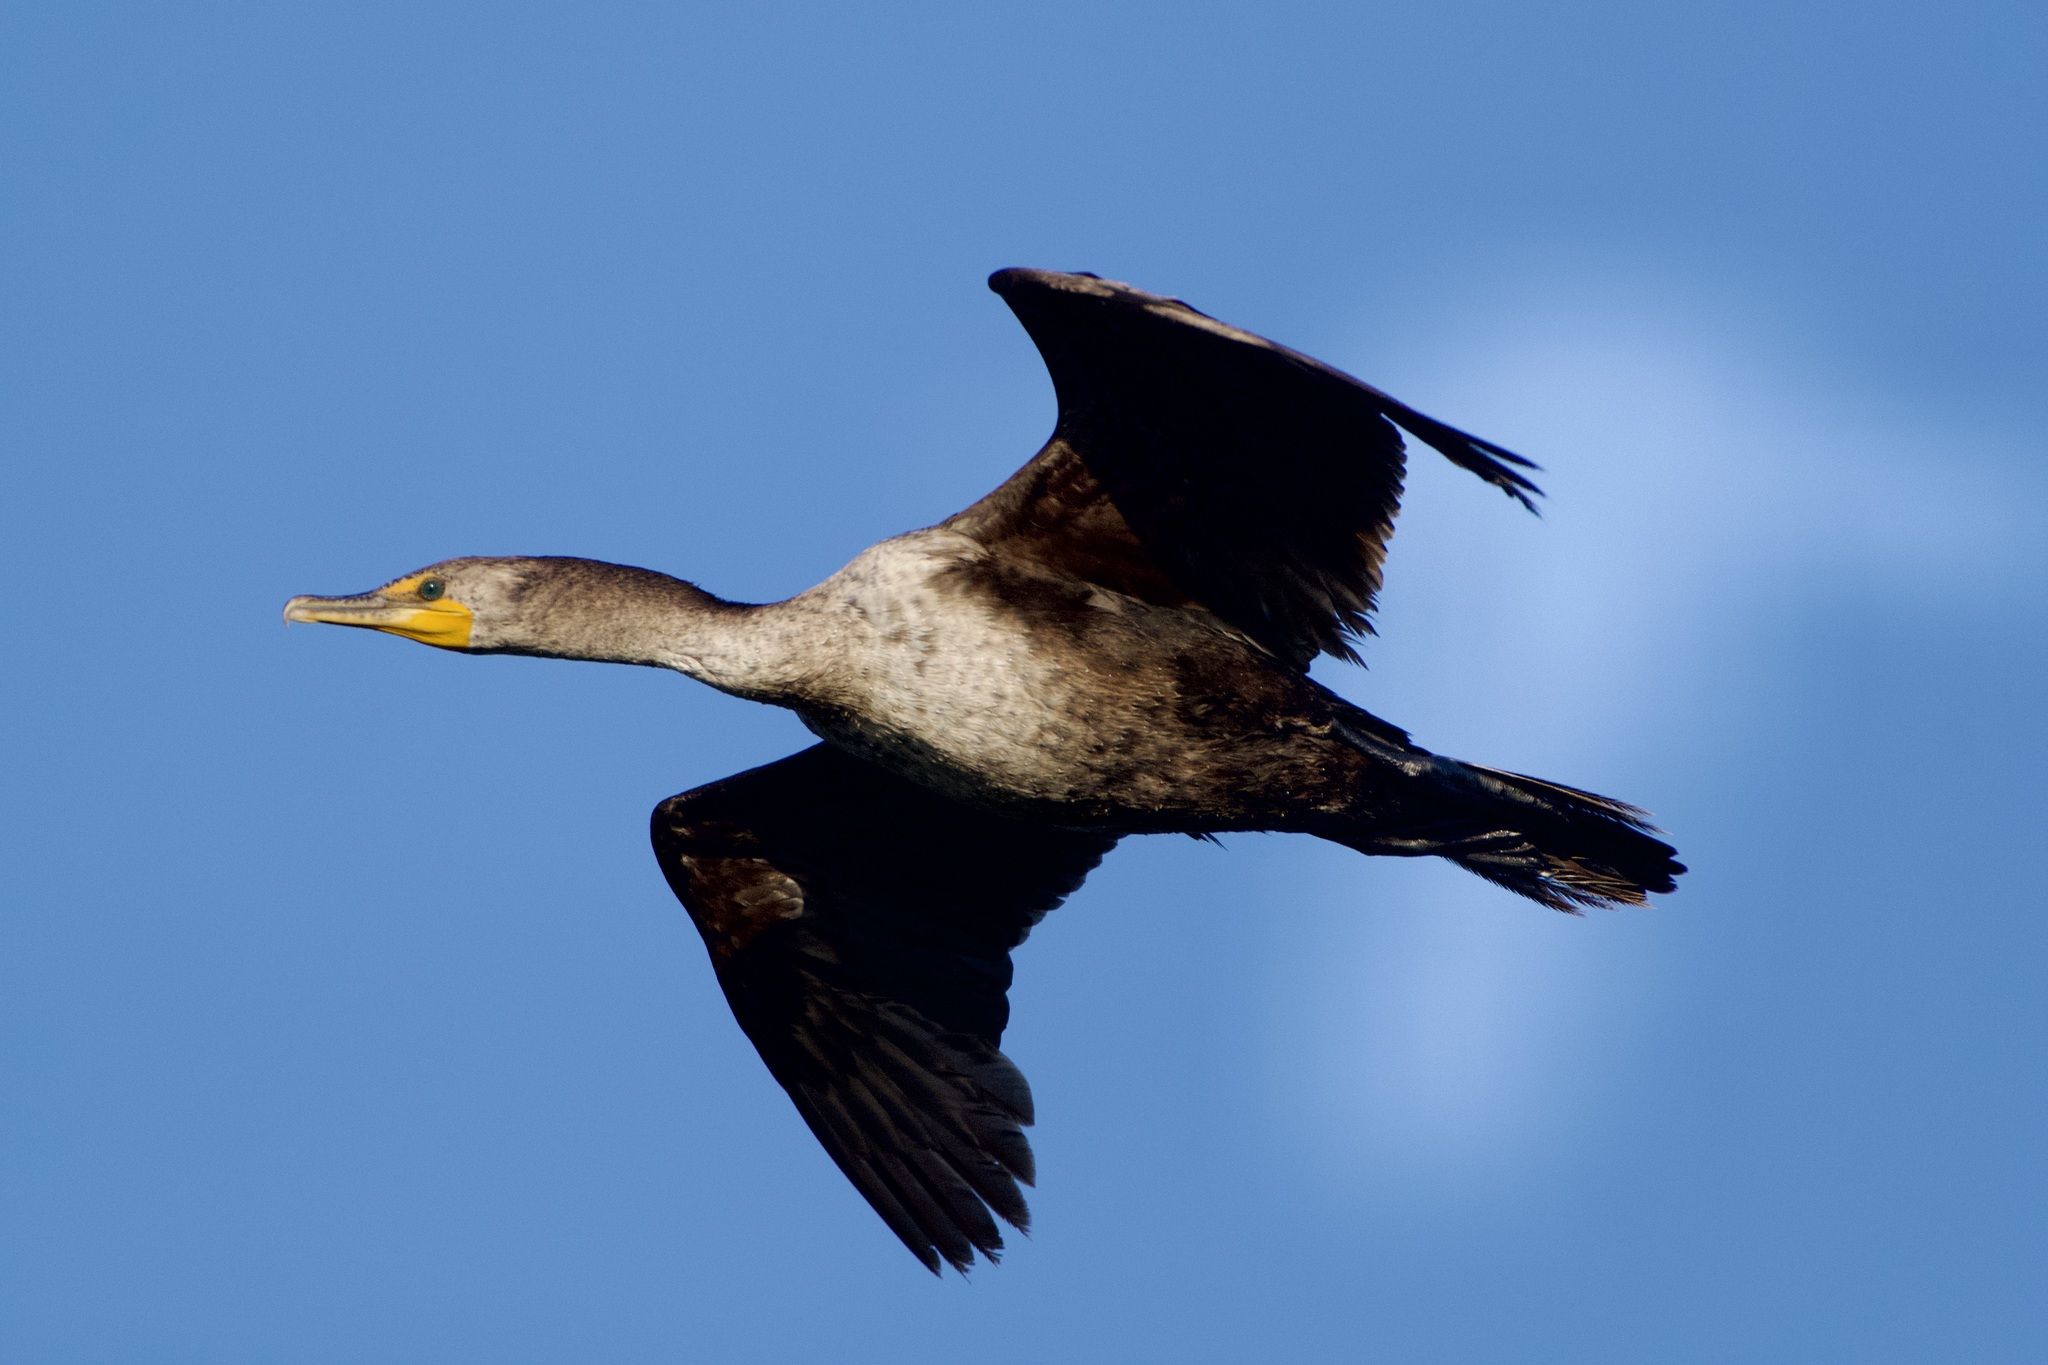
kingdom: Animalia
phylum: Chordata
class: Aves
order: Suliformes
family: Phalacrocoracidae
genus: Phalacrocorax
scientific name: Phalacrocorax auritus
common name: Double-crested cormorant
